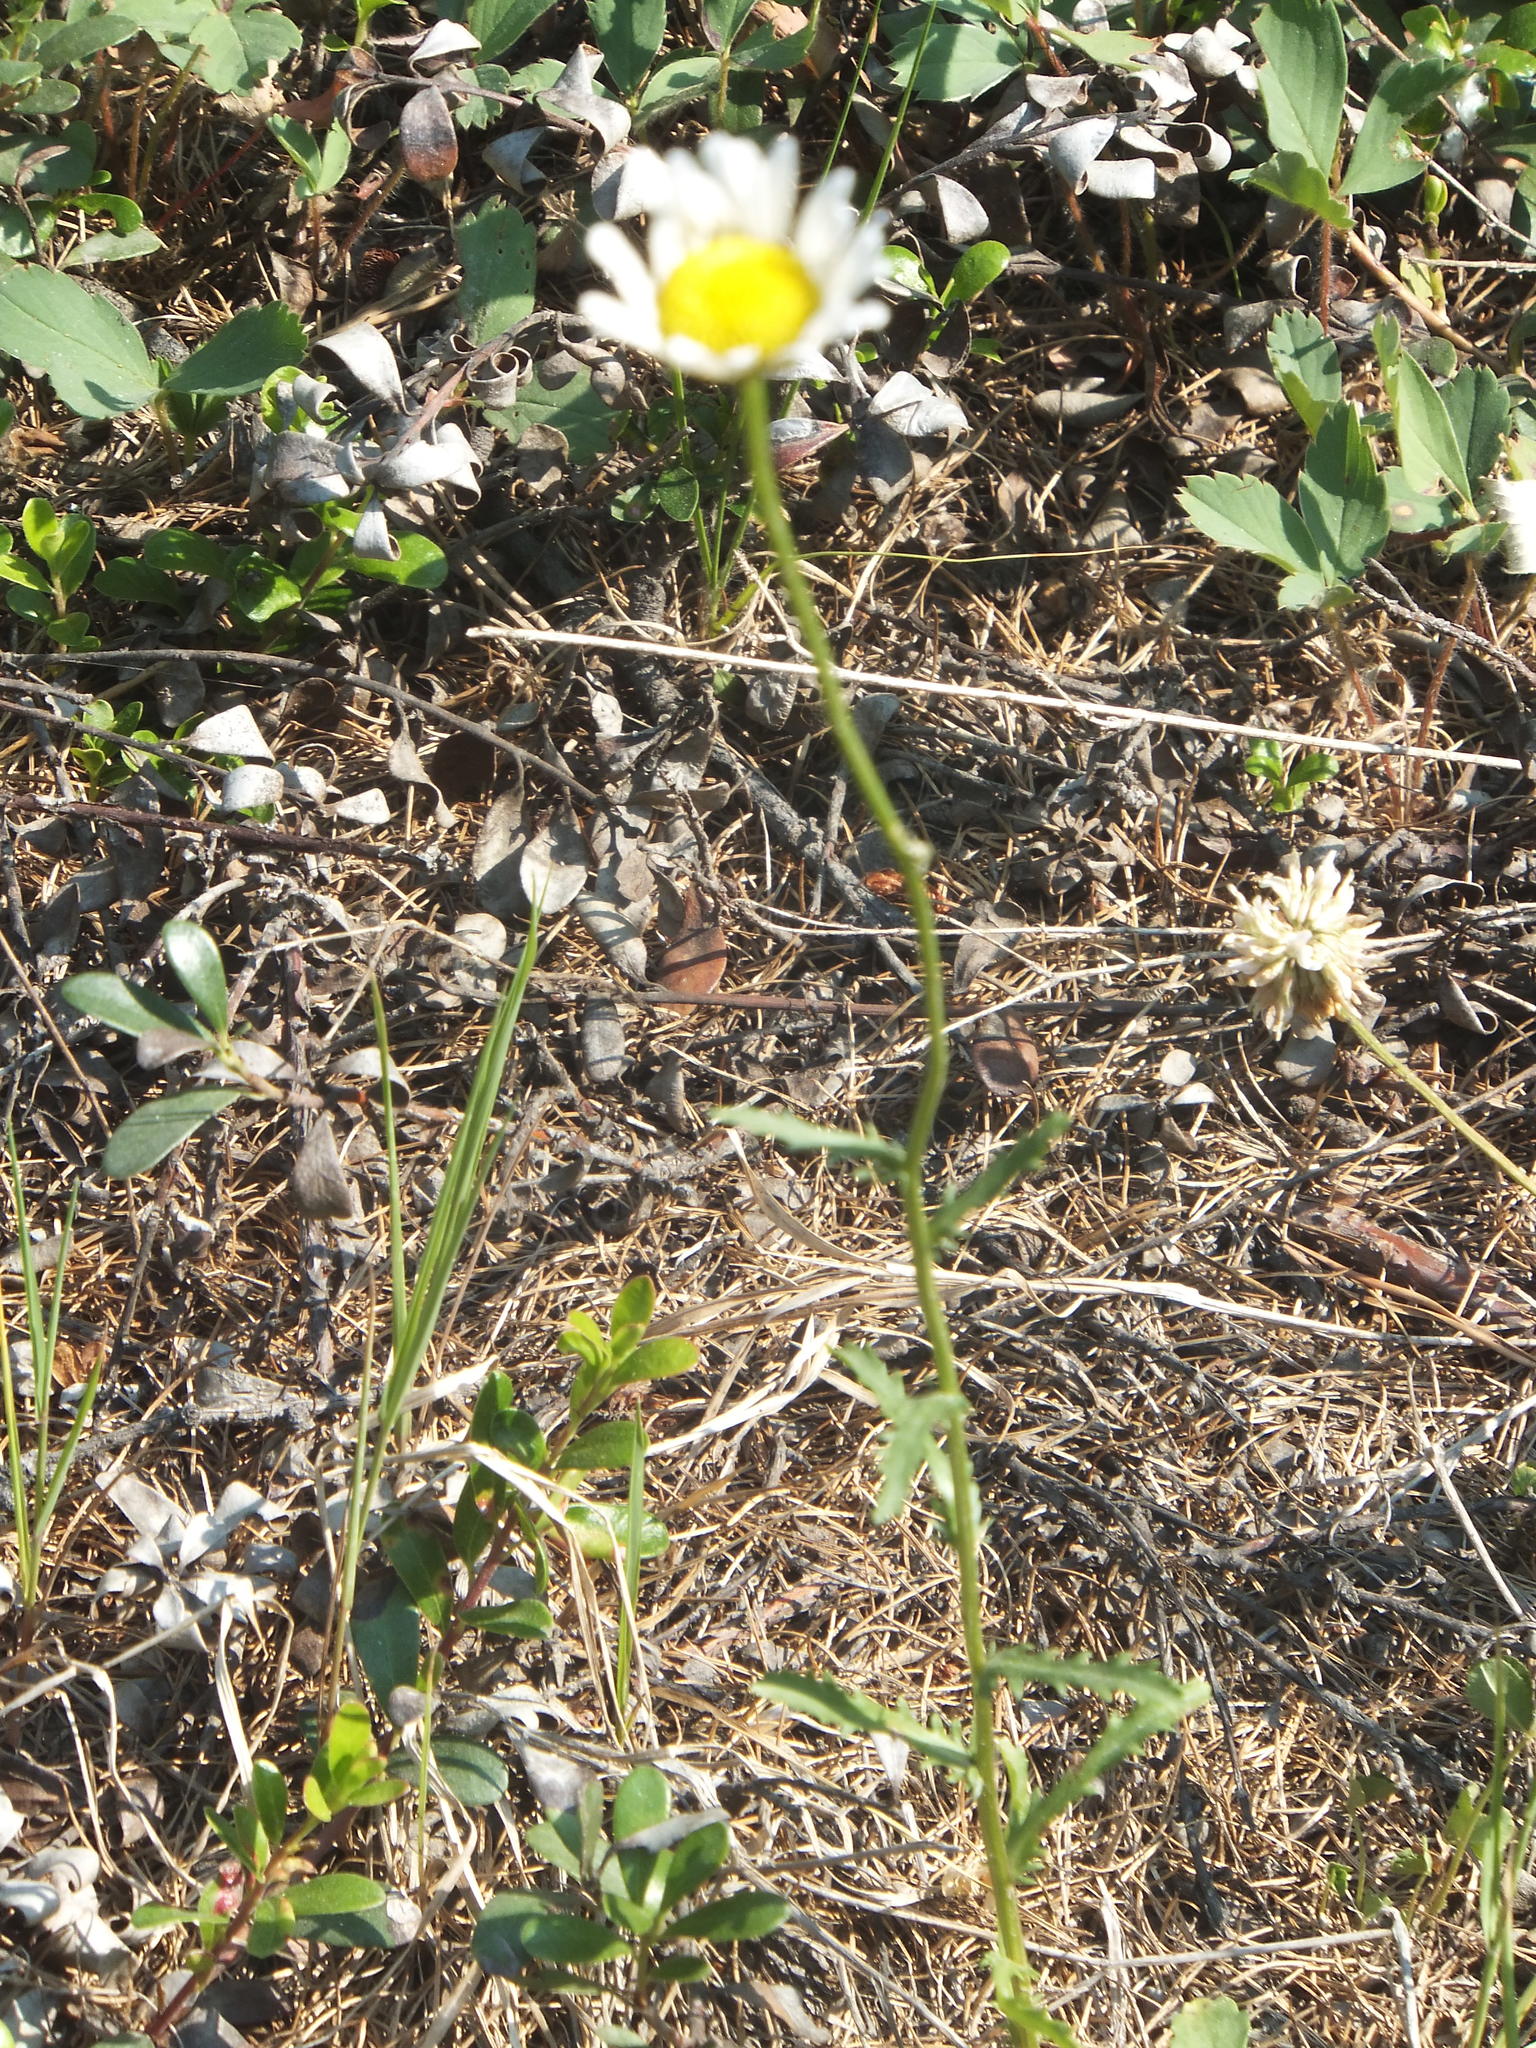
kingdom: Plantae
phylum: Tracheophyta
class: Magnoliopsida
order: Asterales
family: Asteraceae
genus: Leucanthemum
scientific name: Leucanthemum vulgare
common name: Oxeye daisy
